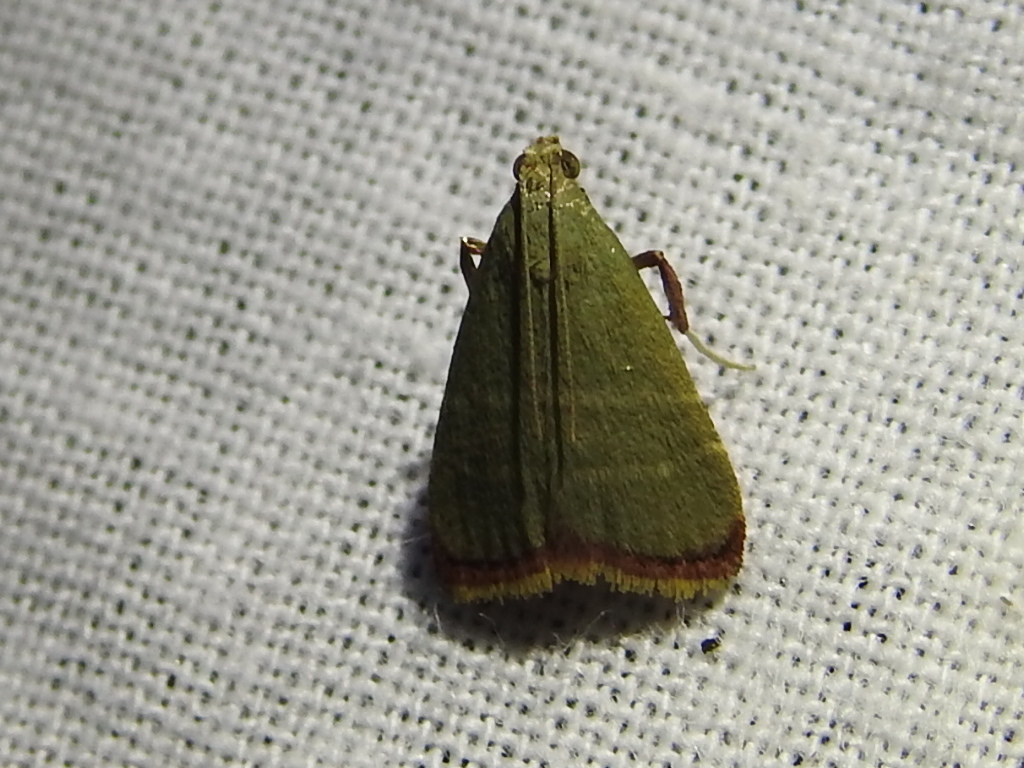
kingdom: Animalia
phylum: Arthropoda
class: Insecta
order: Lepidoptera
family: Pyralidae
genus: Arta
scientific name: Arta olivalis
